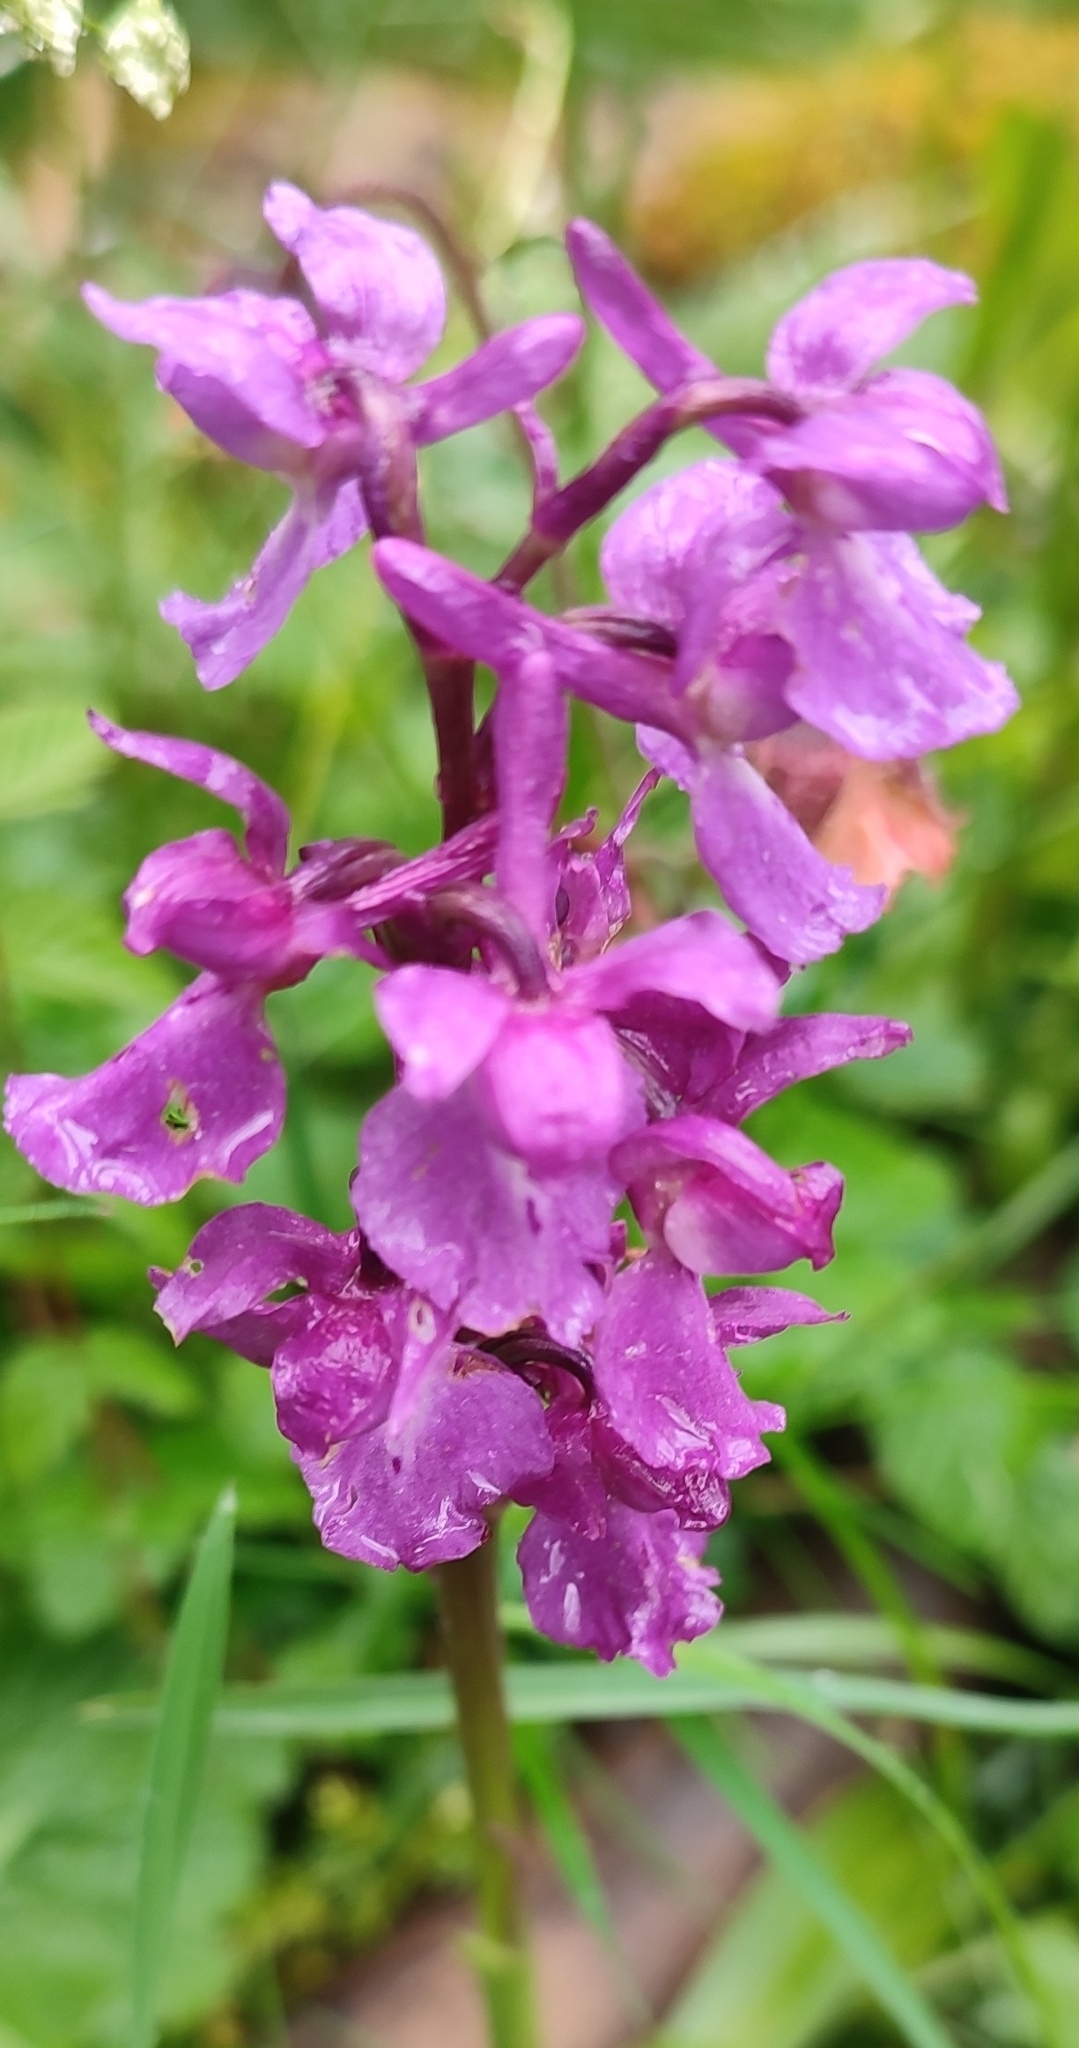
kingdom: Plantae
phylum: Tracheophyta
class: Liliopsida
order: Asparagales
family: Orchidaceae
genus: Orchis
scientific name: Orchis mascula
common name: Early-purple orchid
